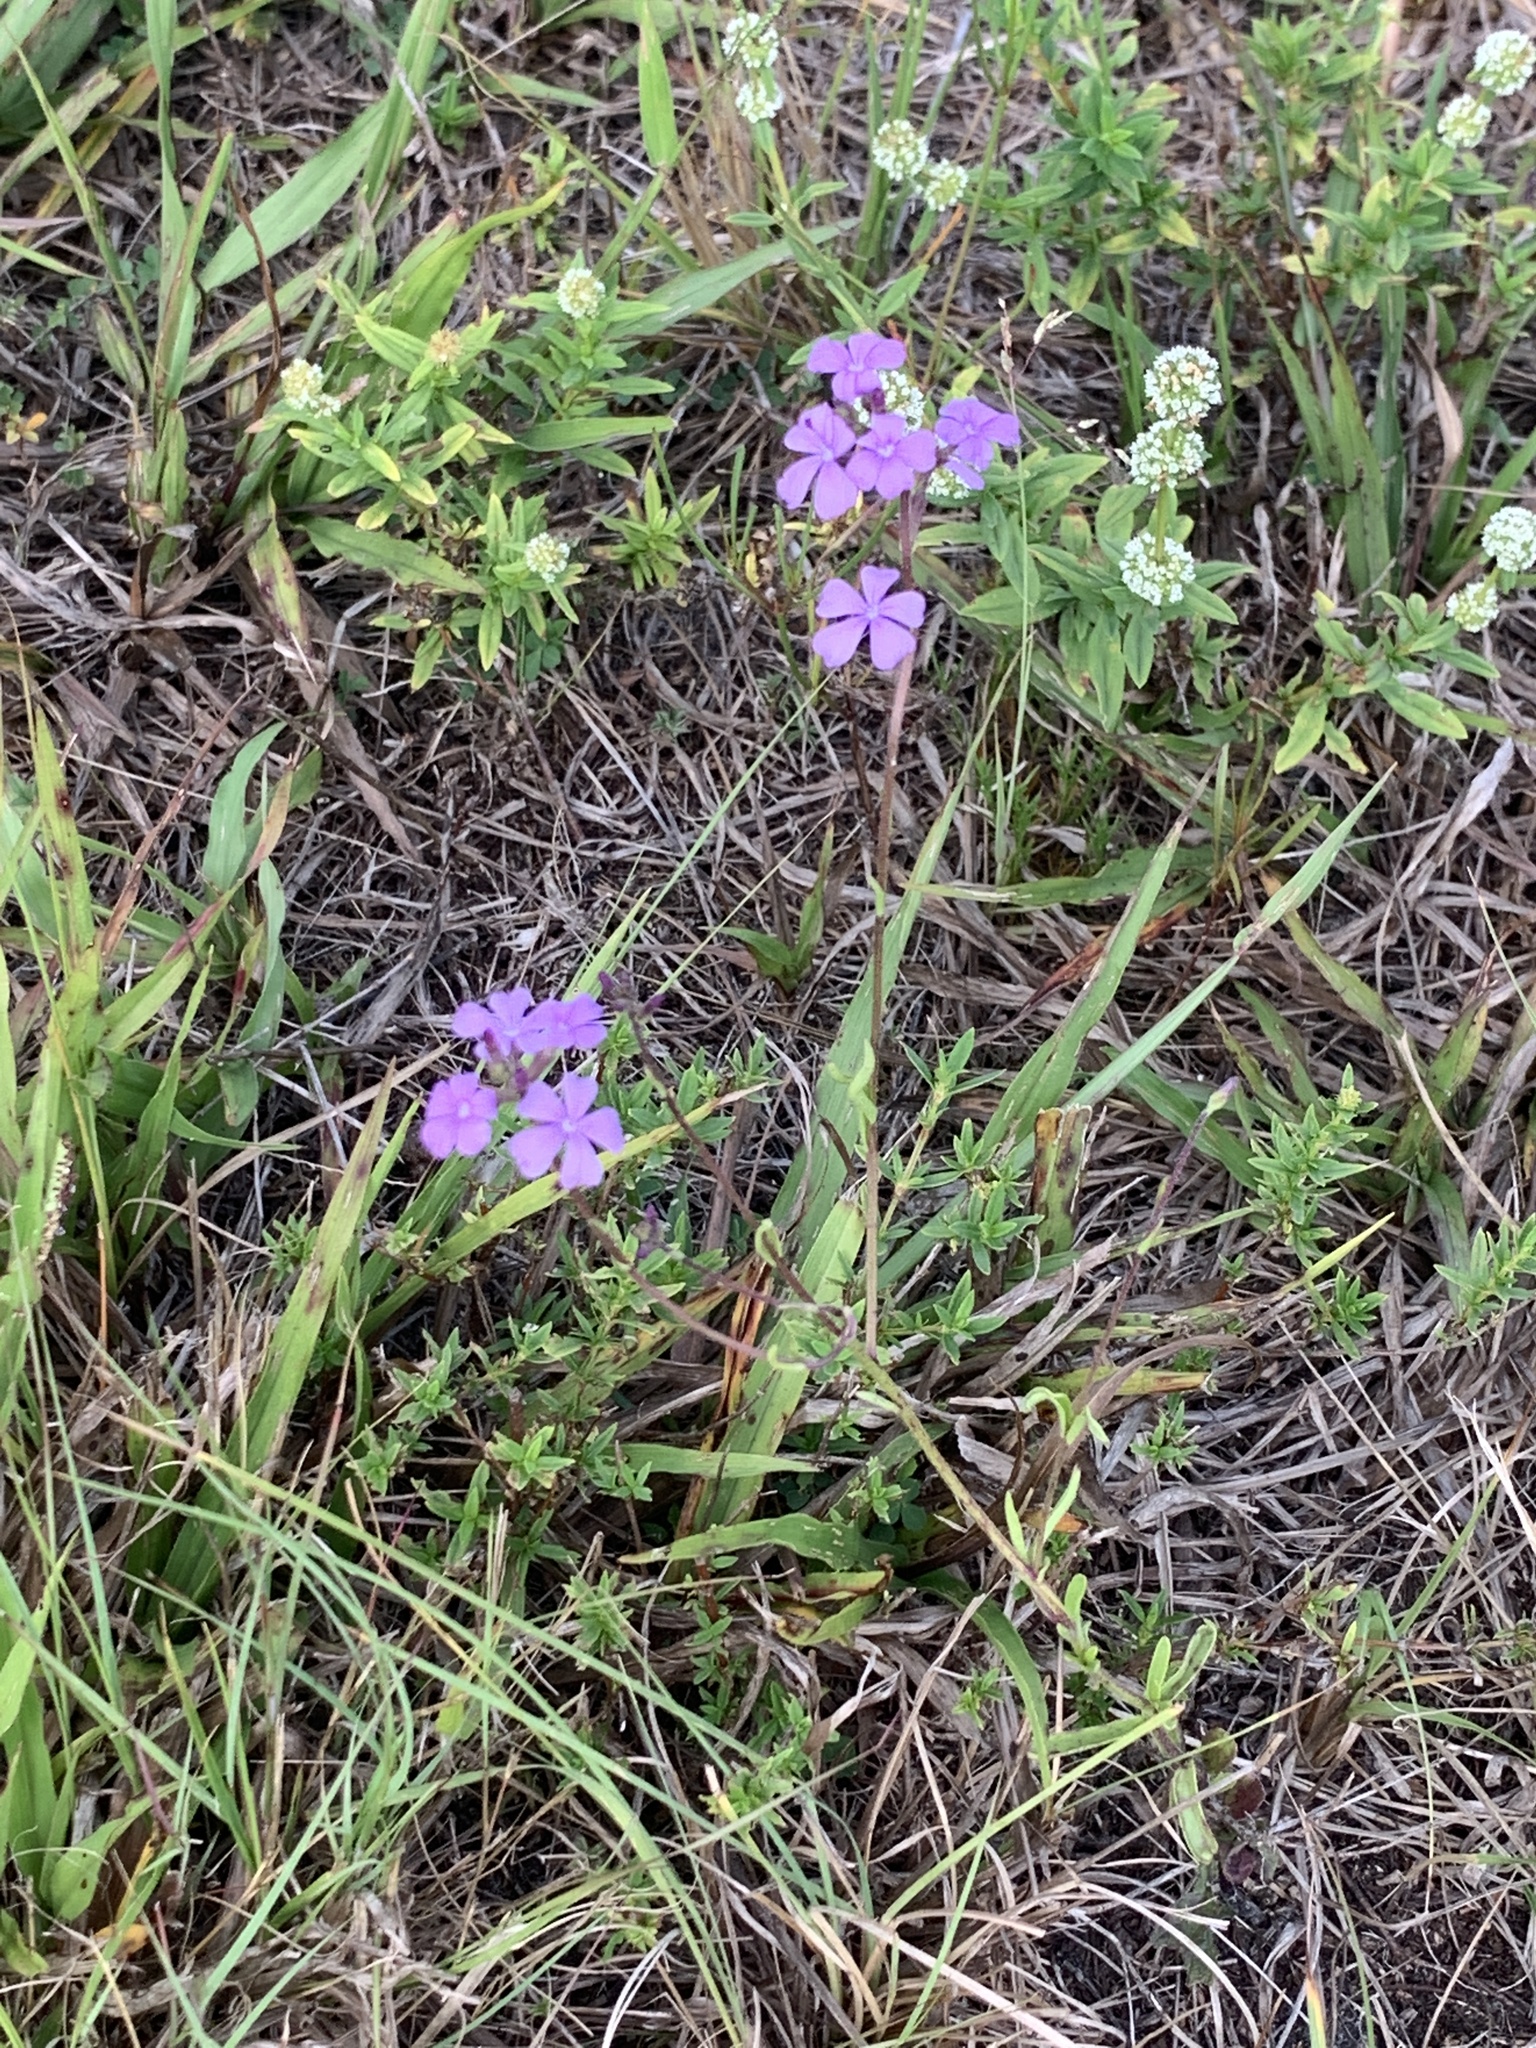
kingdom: Plantae
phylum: Tracheophyta
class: Magnoliopsida
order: Lamiales
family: Orobanchaceae
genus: Buchnera
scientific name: Buchnera floridana
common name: Florida bluehearts
